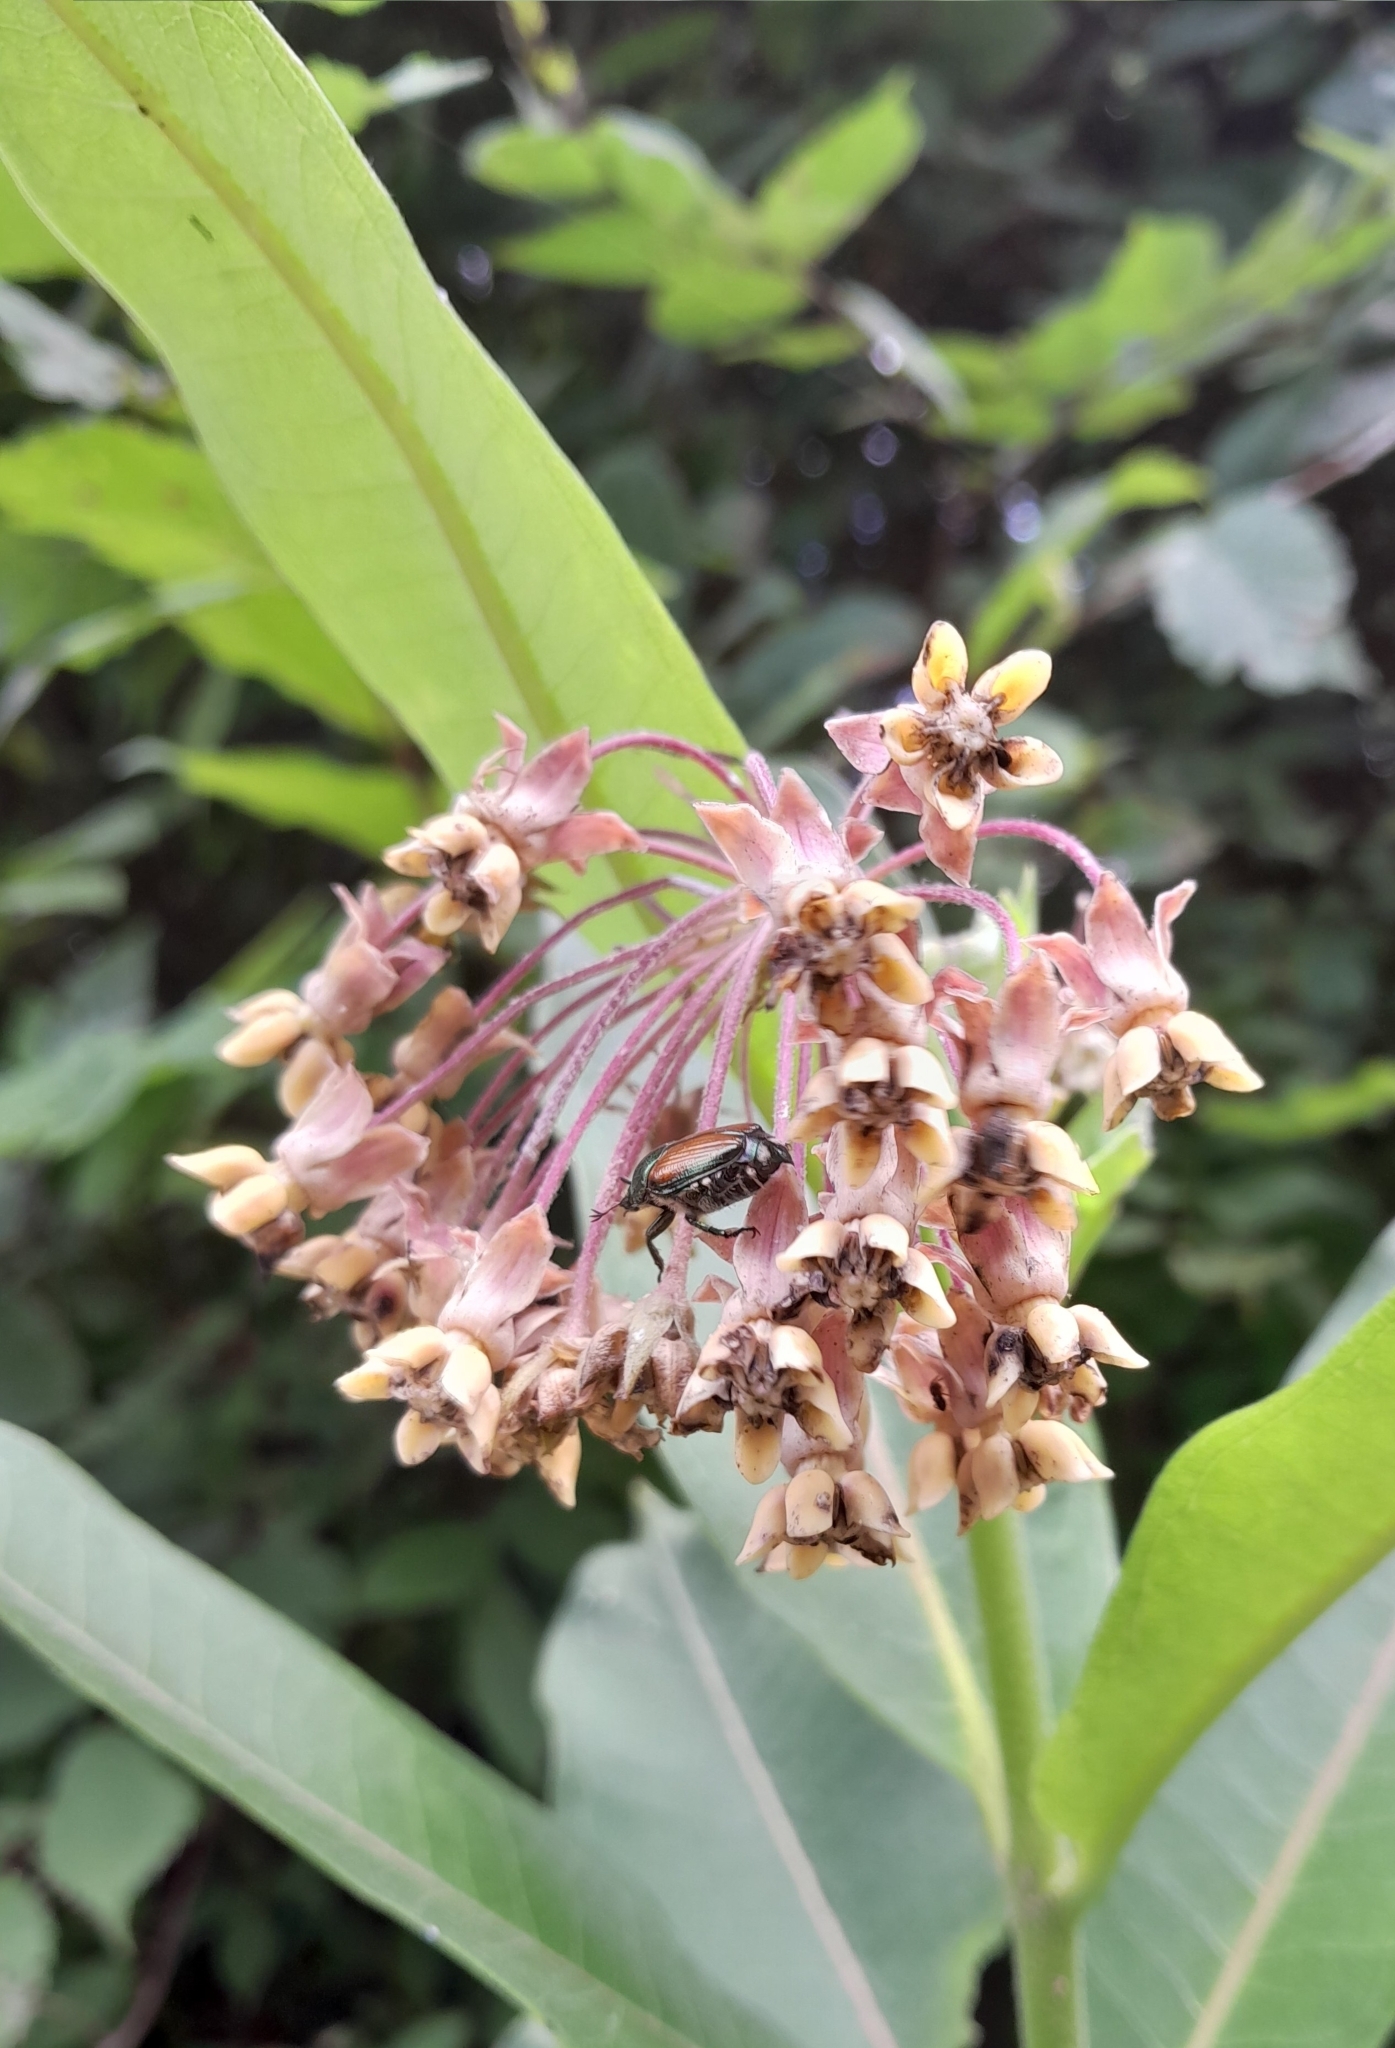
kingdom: Plantae
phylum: Tracheophyta
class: Magnoliopsida
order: Gentianales
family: Apocynaceae
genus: Asclepias
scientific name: Asclepias syriaca
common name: Common milkweed
